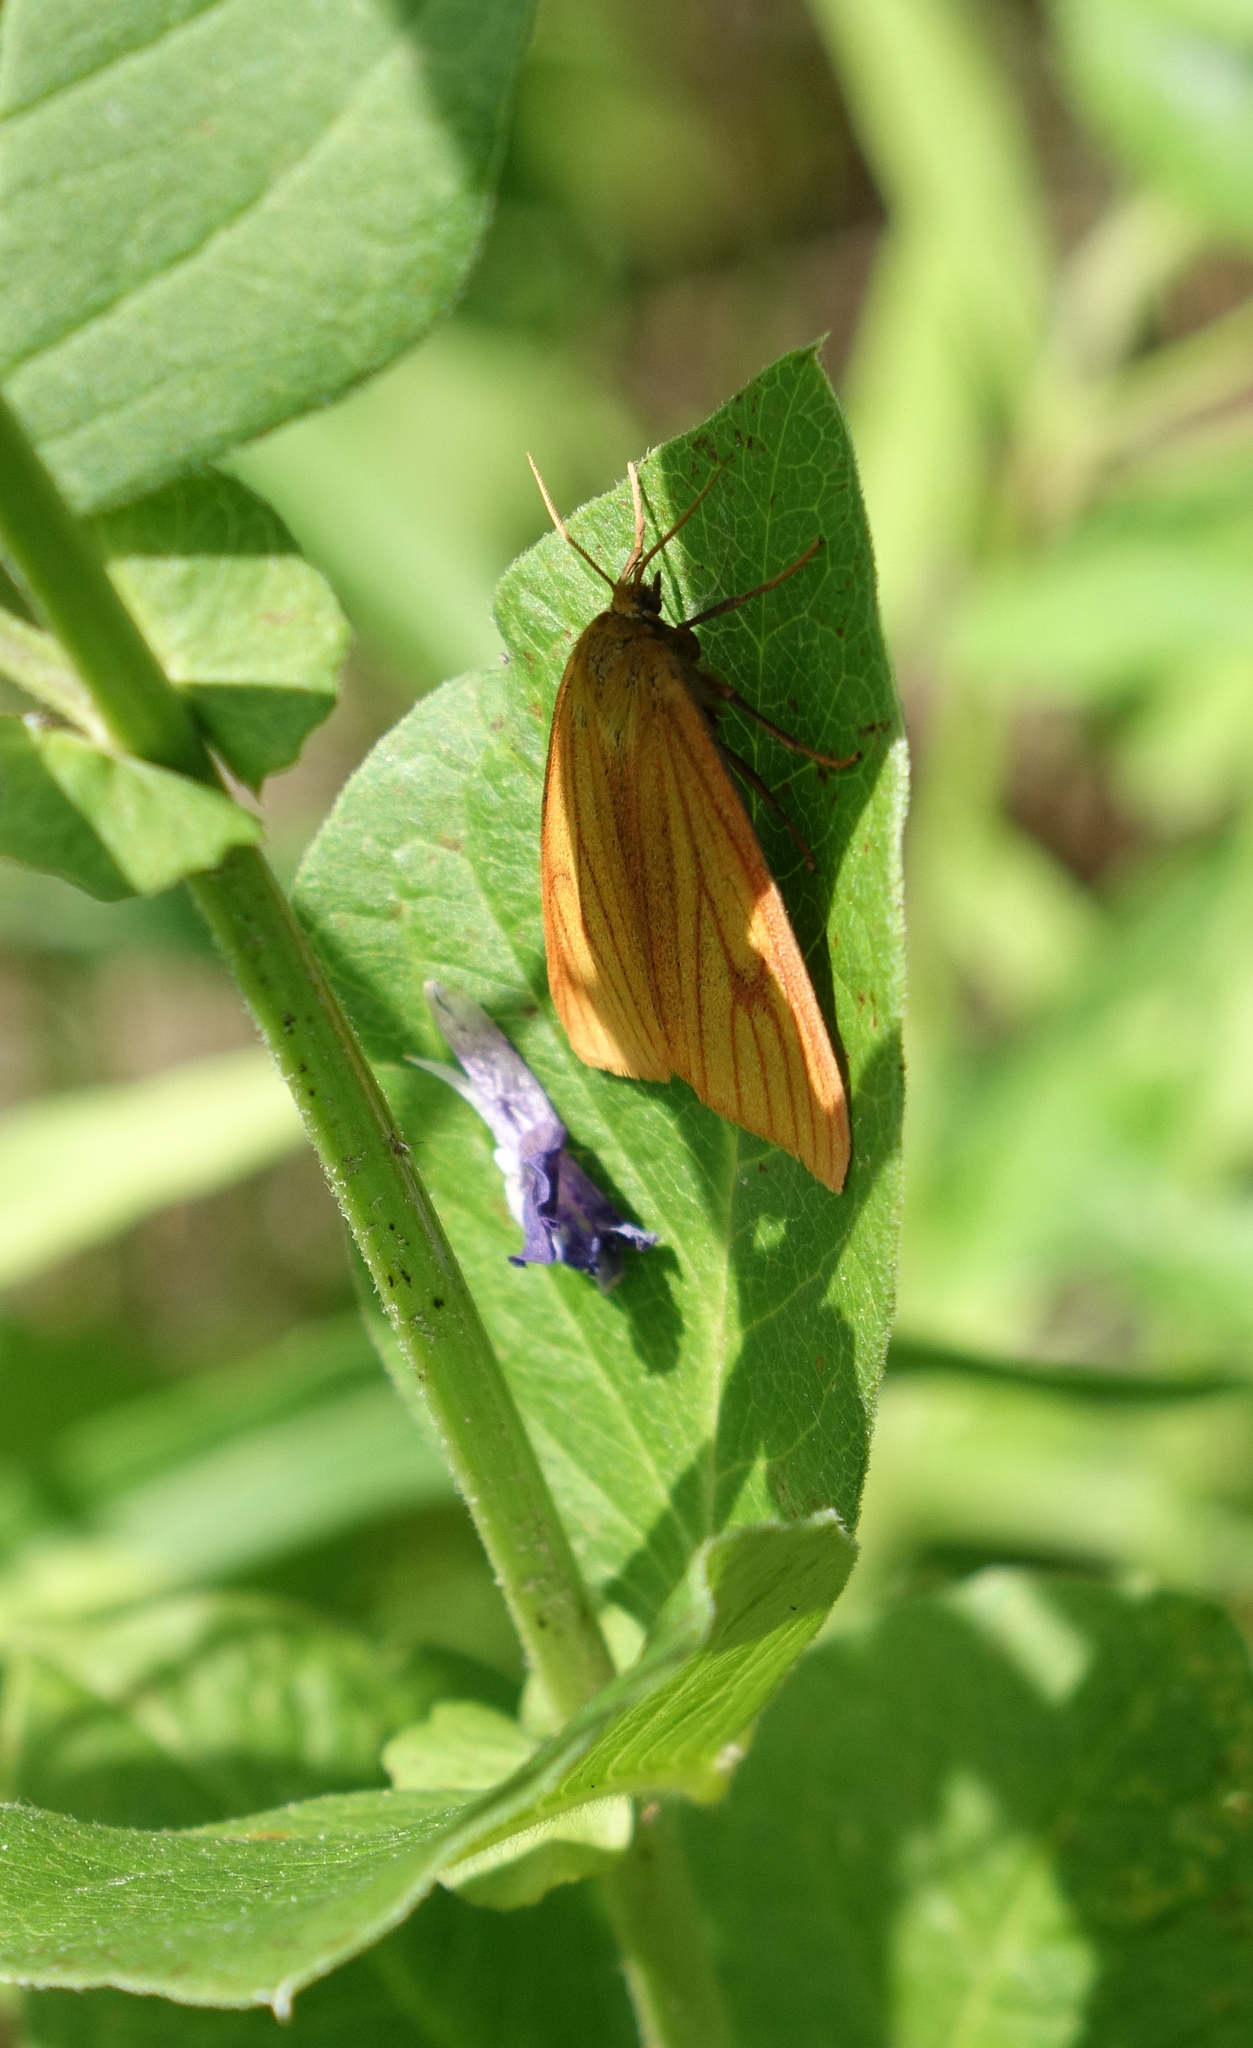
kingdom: Animalia
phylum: Arthropoda
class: Insecta
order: Lepidoptera
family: Erebidae
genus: Diacrisia
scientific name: Diacrisia sannio
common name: Clouded buff
